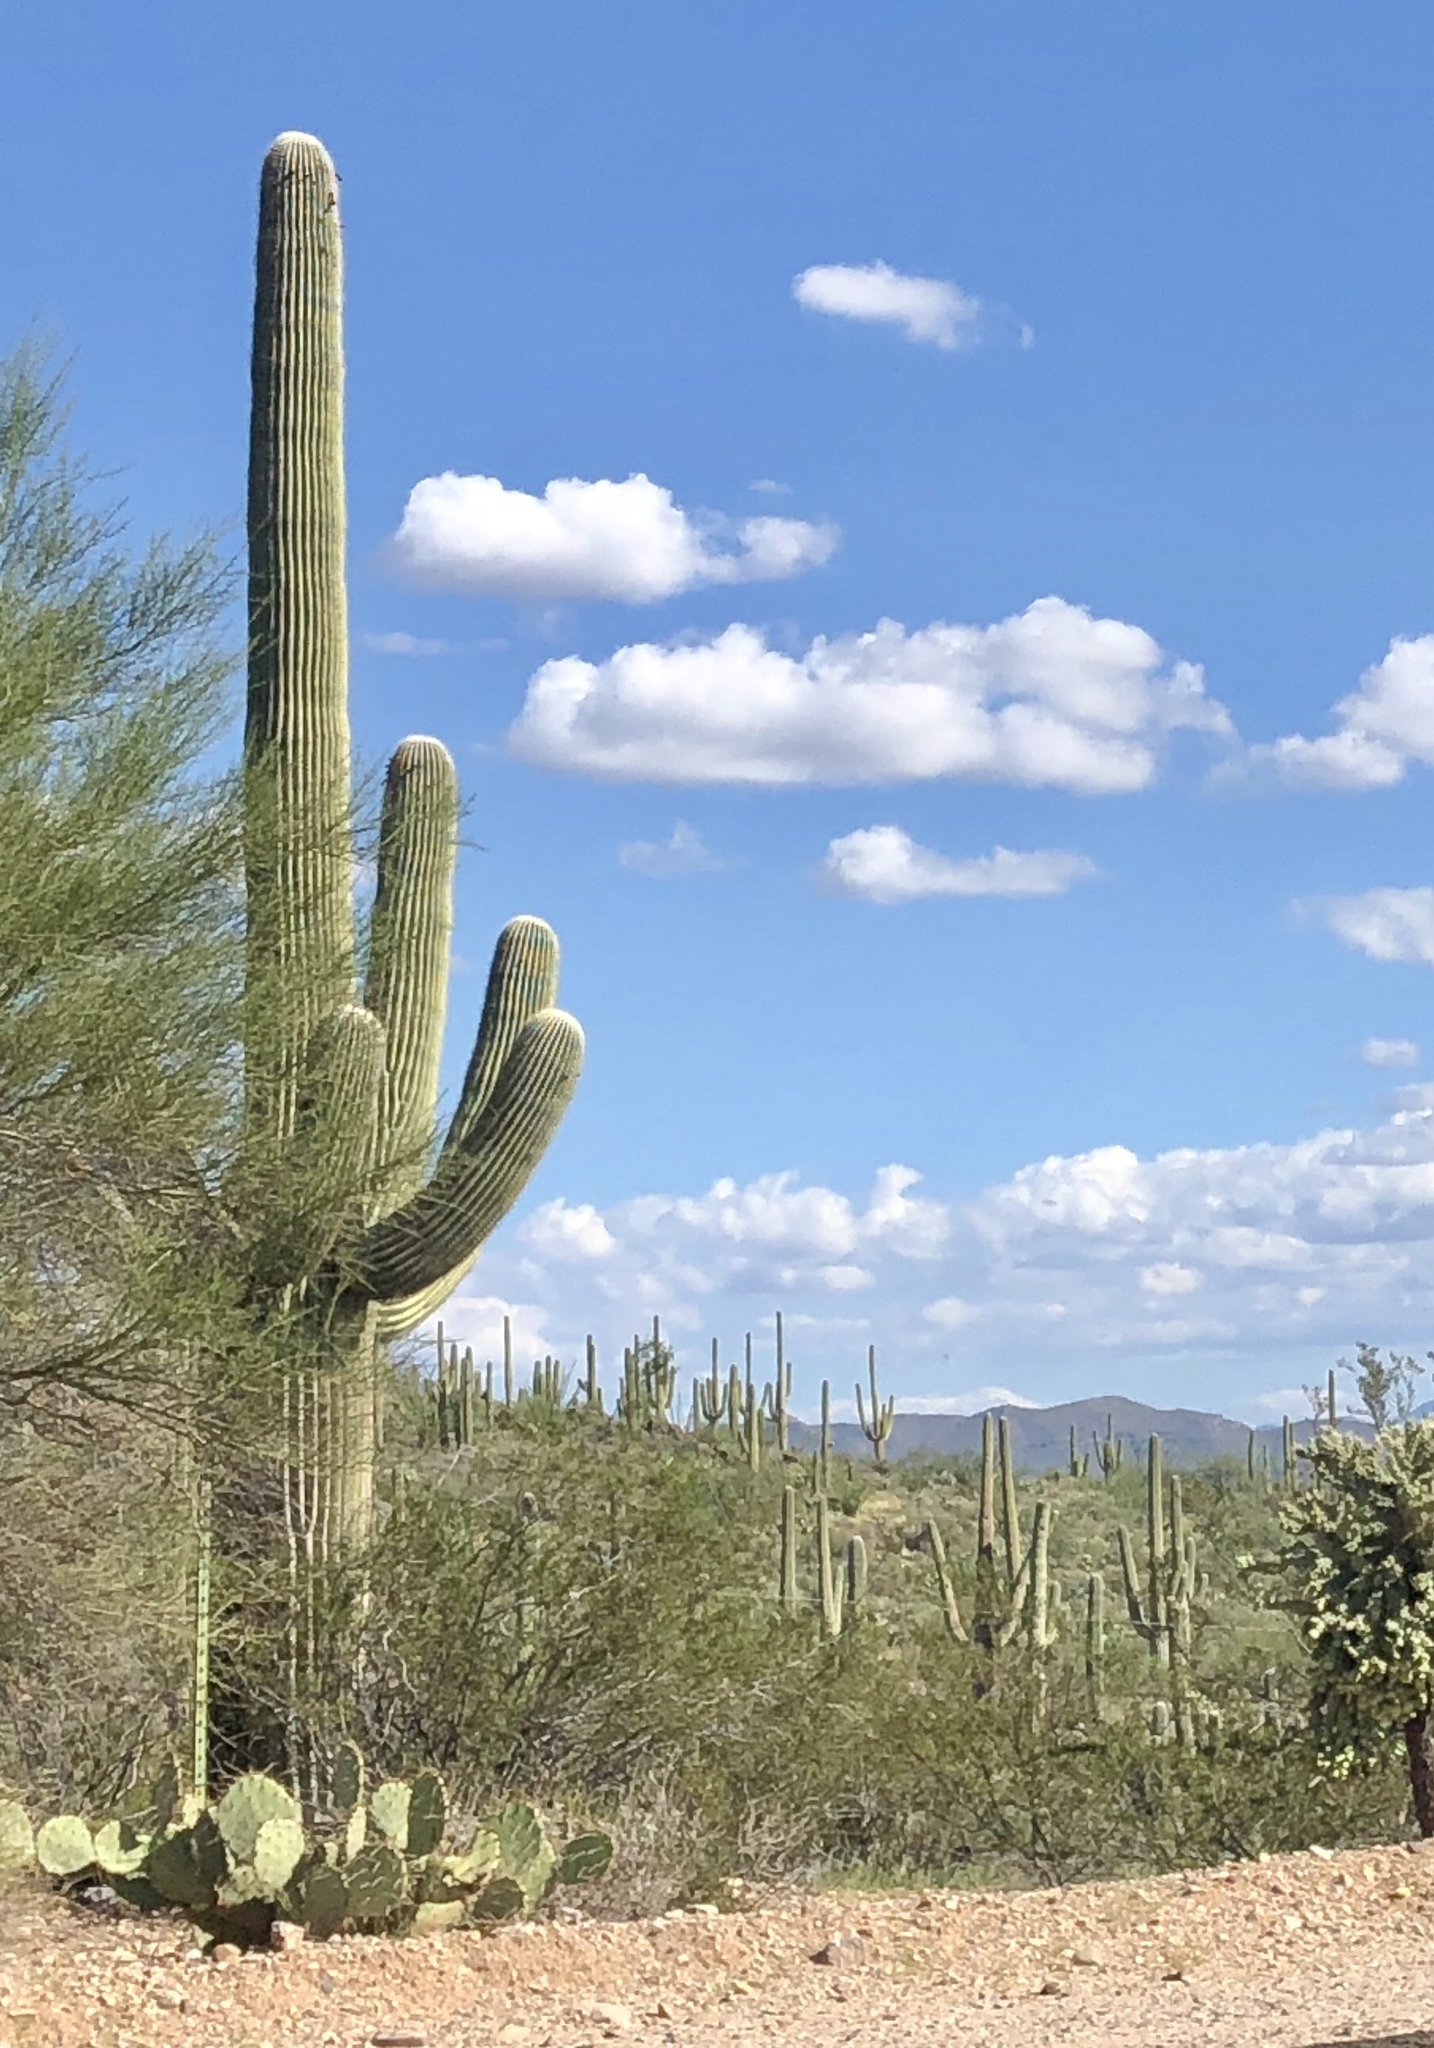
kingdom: Plantae
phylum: Tracheophyta
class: Magnoliopsida
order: Caryophyllales
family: Cactaceae
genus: Carnegiea
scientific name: Carnegiea gigantea
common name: Saguaro
